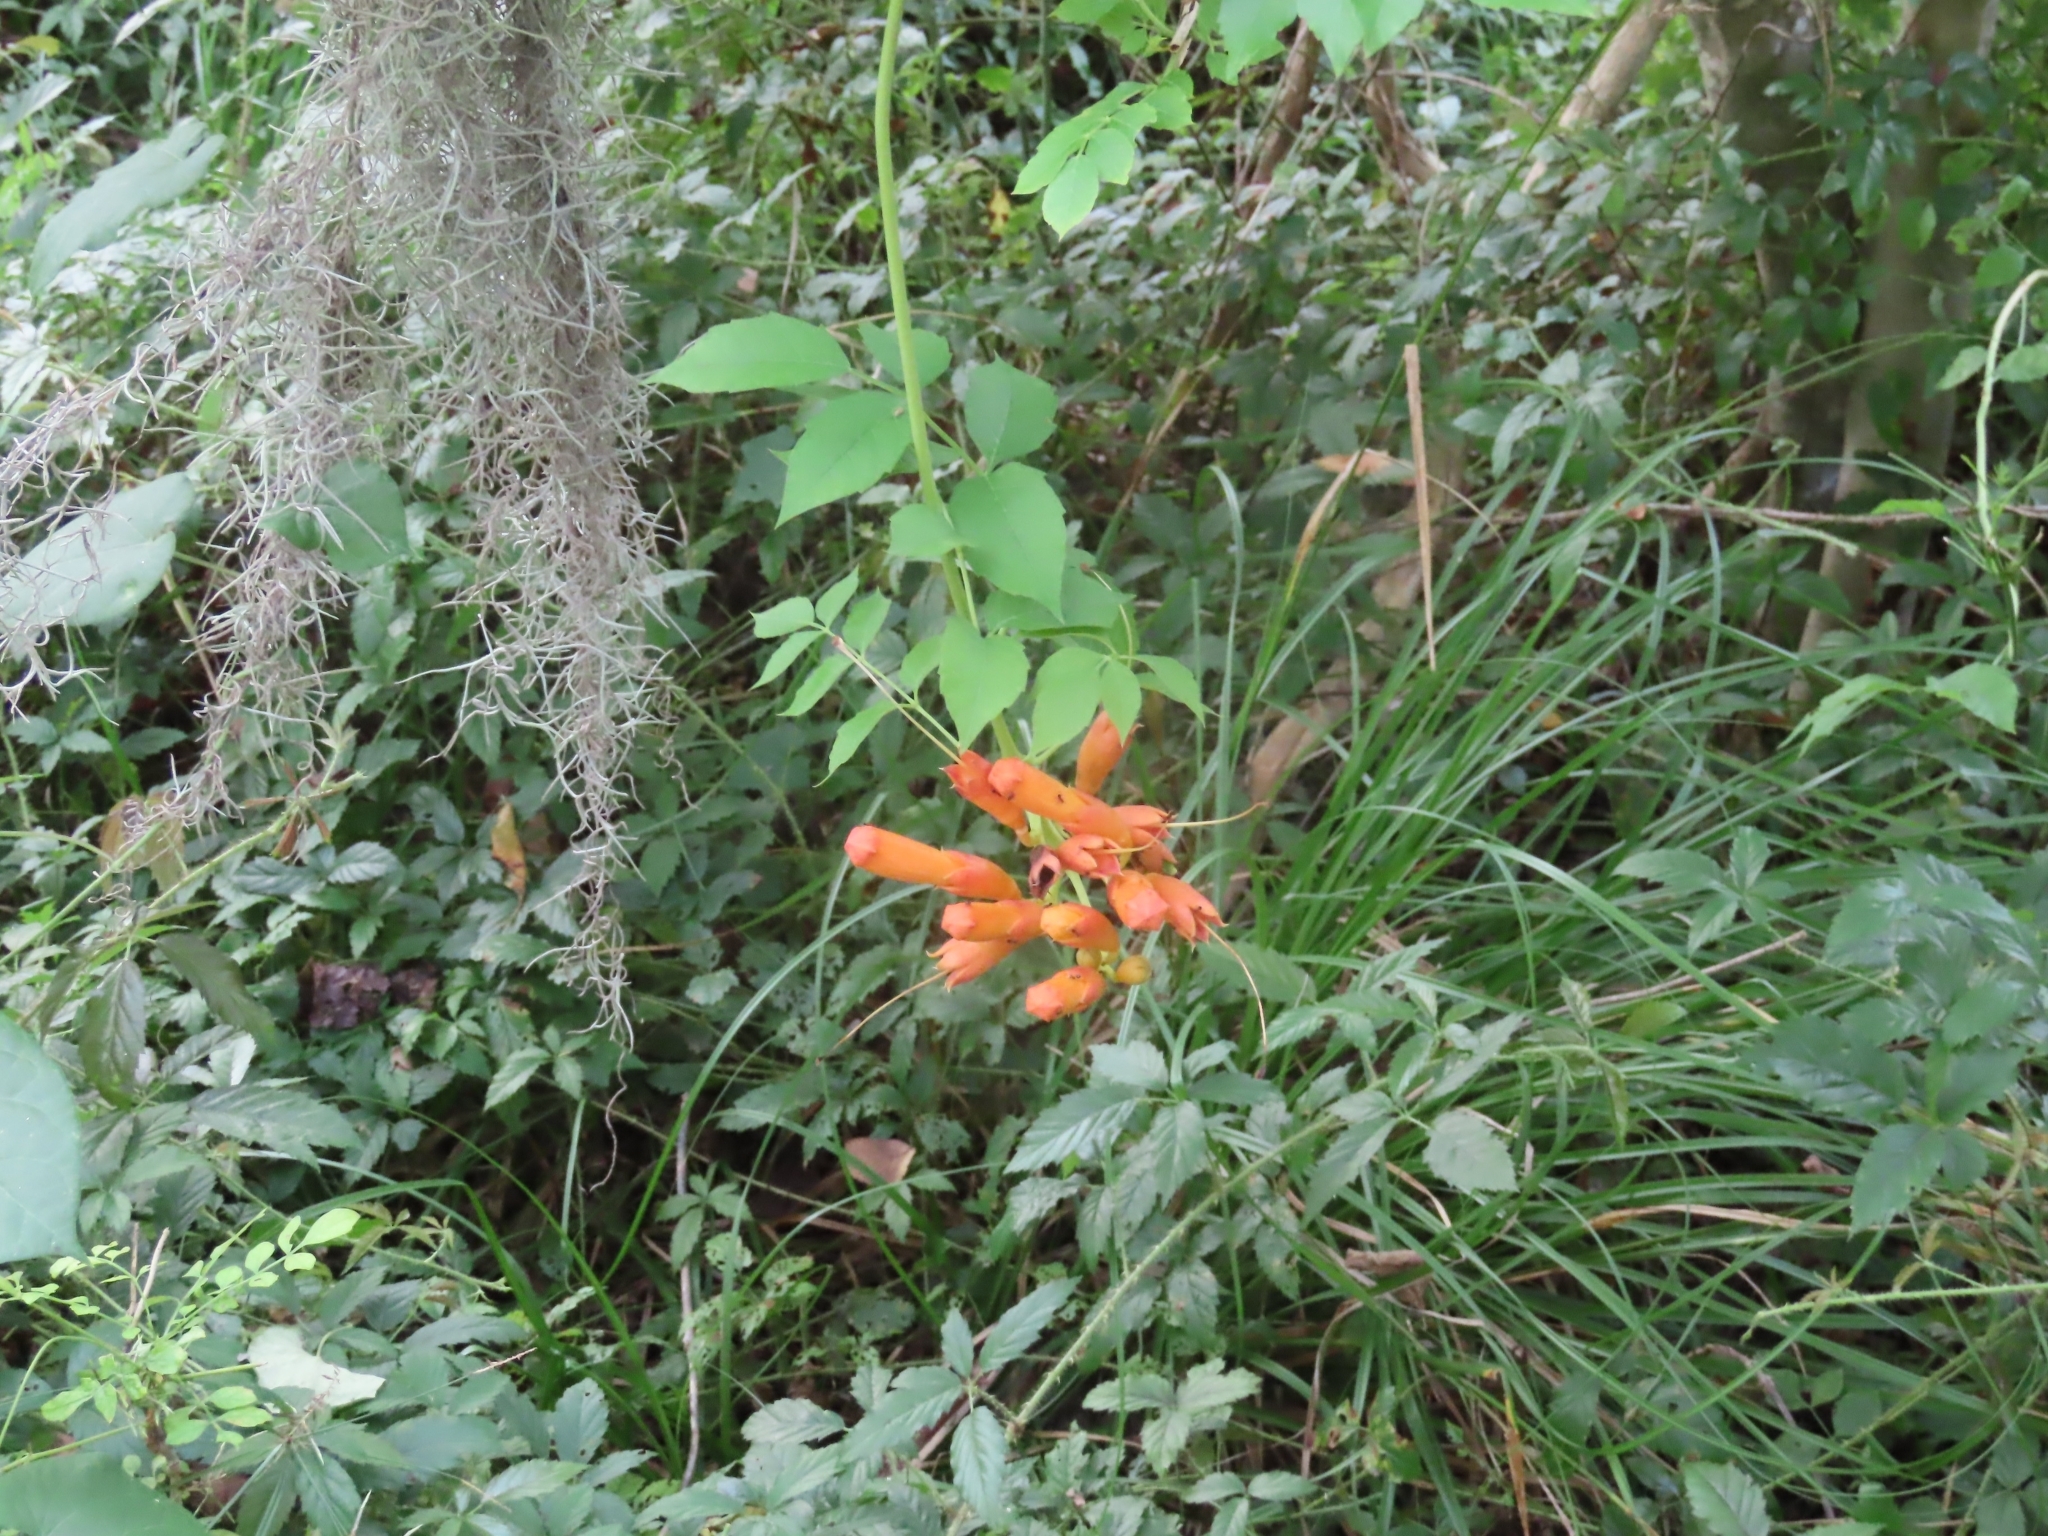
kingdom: Plantae
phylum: Tracheophyta
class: Magnoliopsida
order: Lamiales
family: Bignoniaceae
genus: Campsis
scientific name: Campsis radicans
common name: Trumpet-creeper
